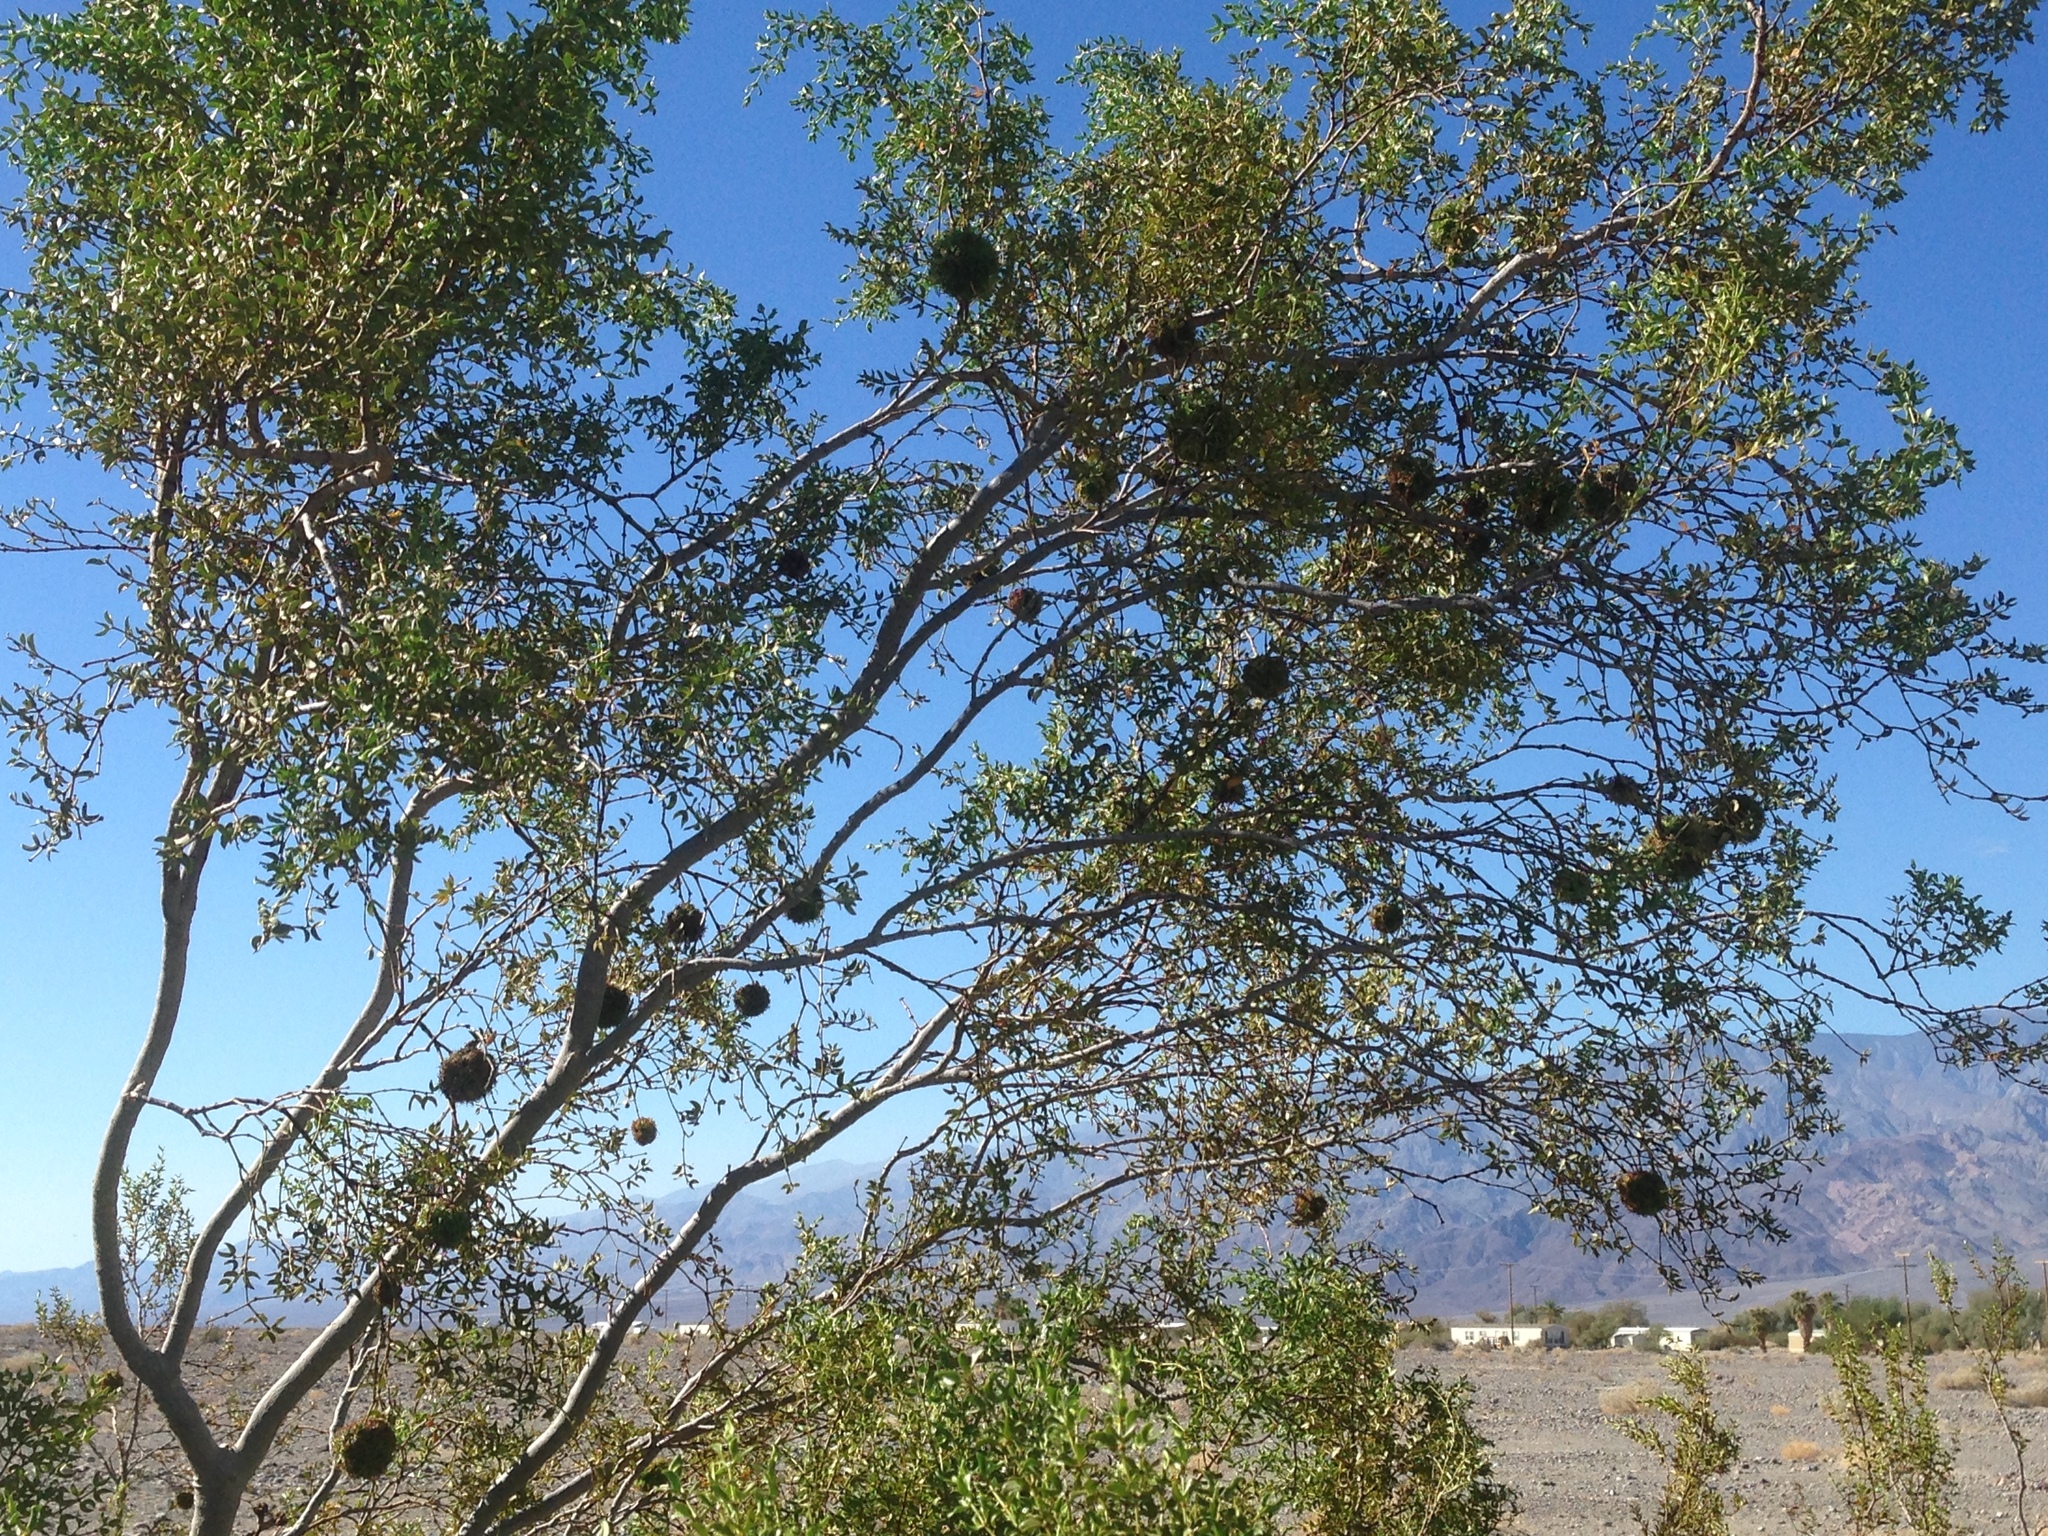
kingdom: Plantae
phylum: Tracheophyta
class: Magnoliopsida
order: Zygophyllales
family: Zygophyllaceae
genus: Larrea
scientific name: Larrea tridentata
